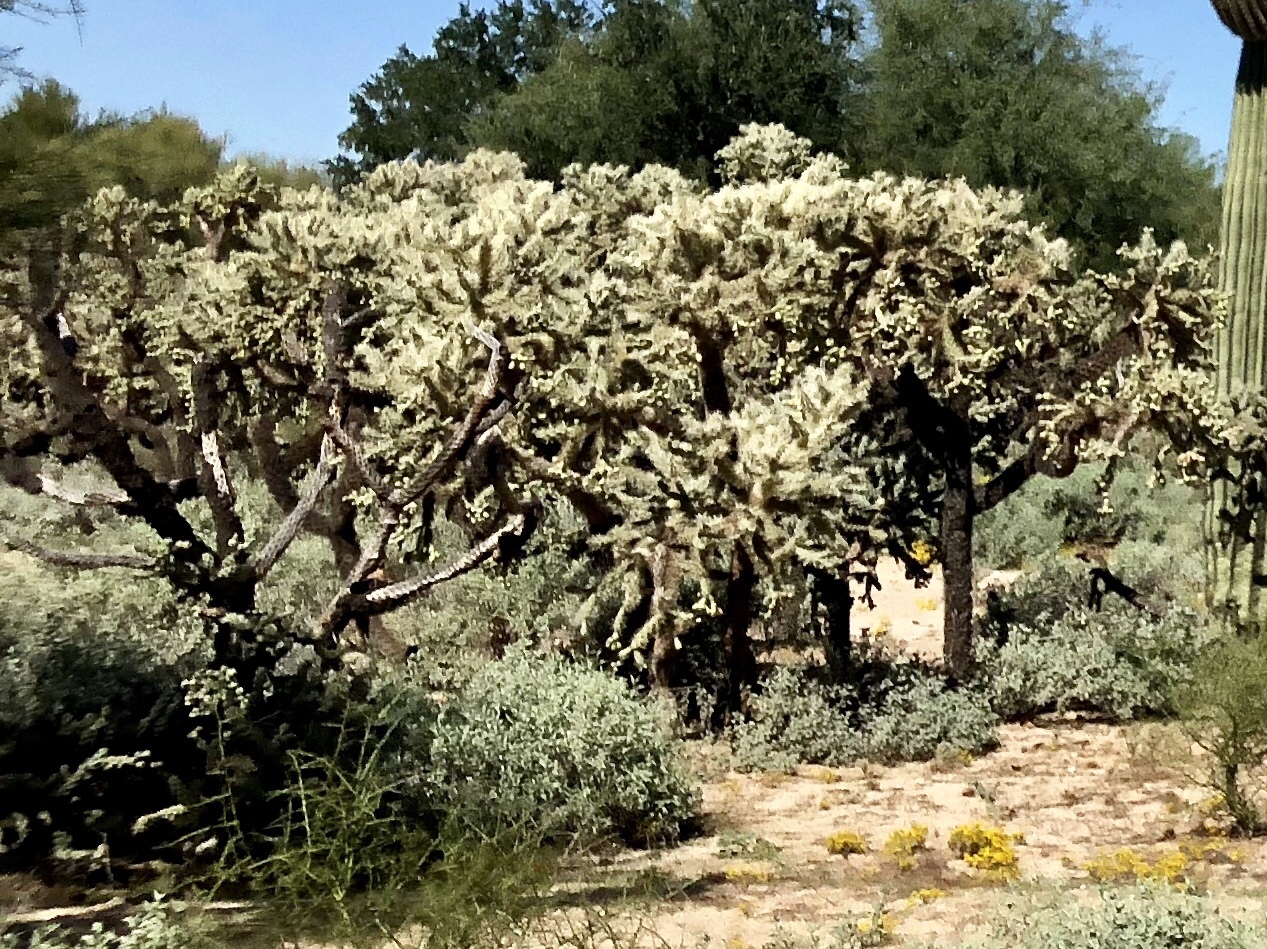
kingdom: Plantae
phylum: Tracheophyta
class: Magnoliopsida
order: Caryophyllales
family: Cactaceae
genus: Cylindropuntia
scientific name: Cylindropuntia fulgida
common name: Jumping cholla
